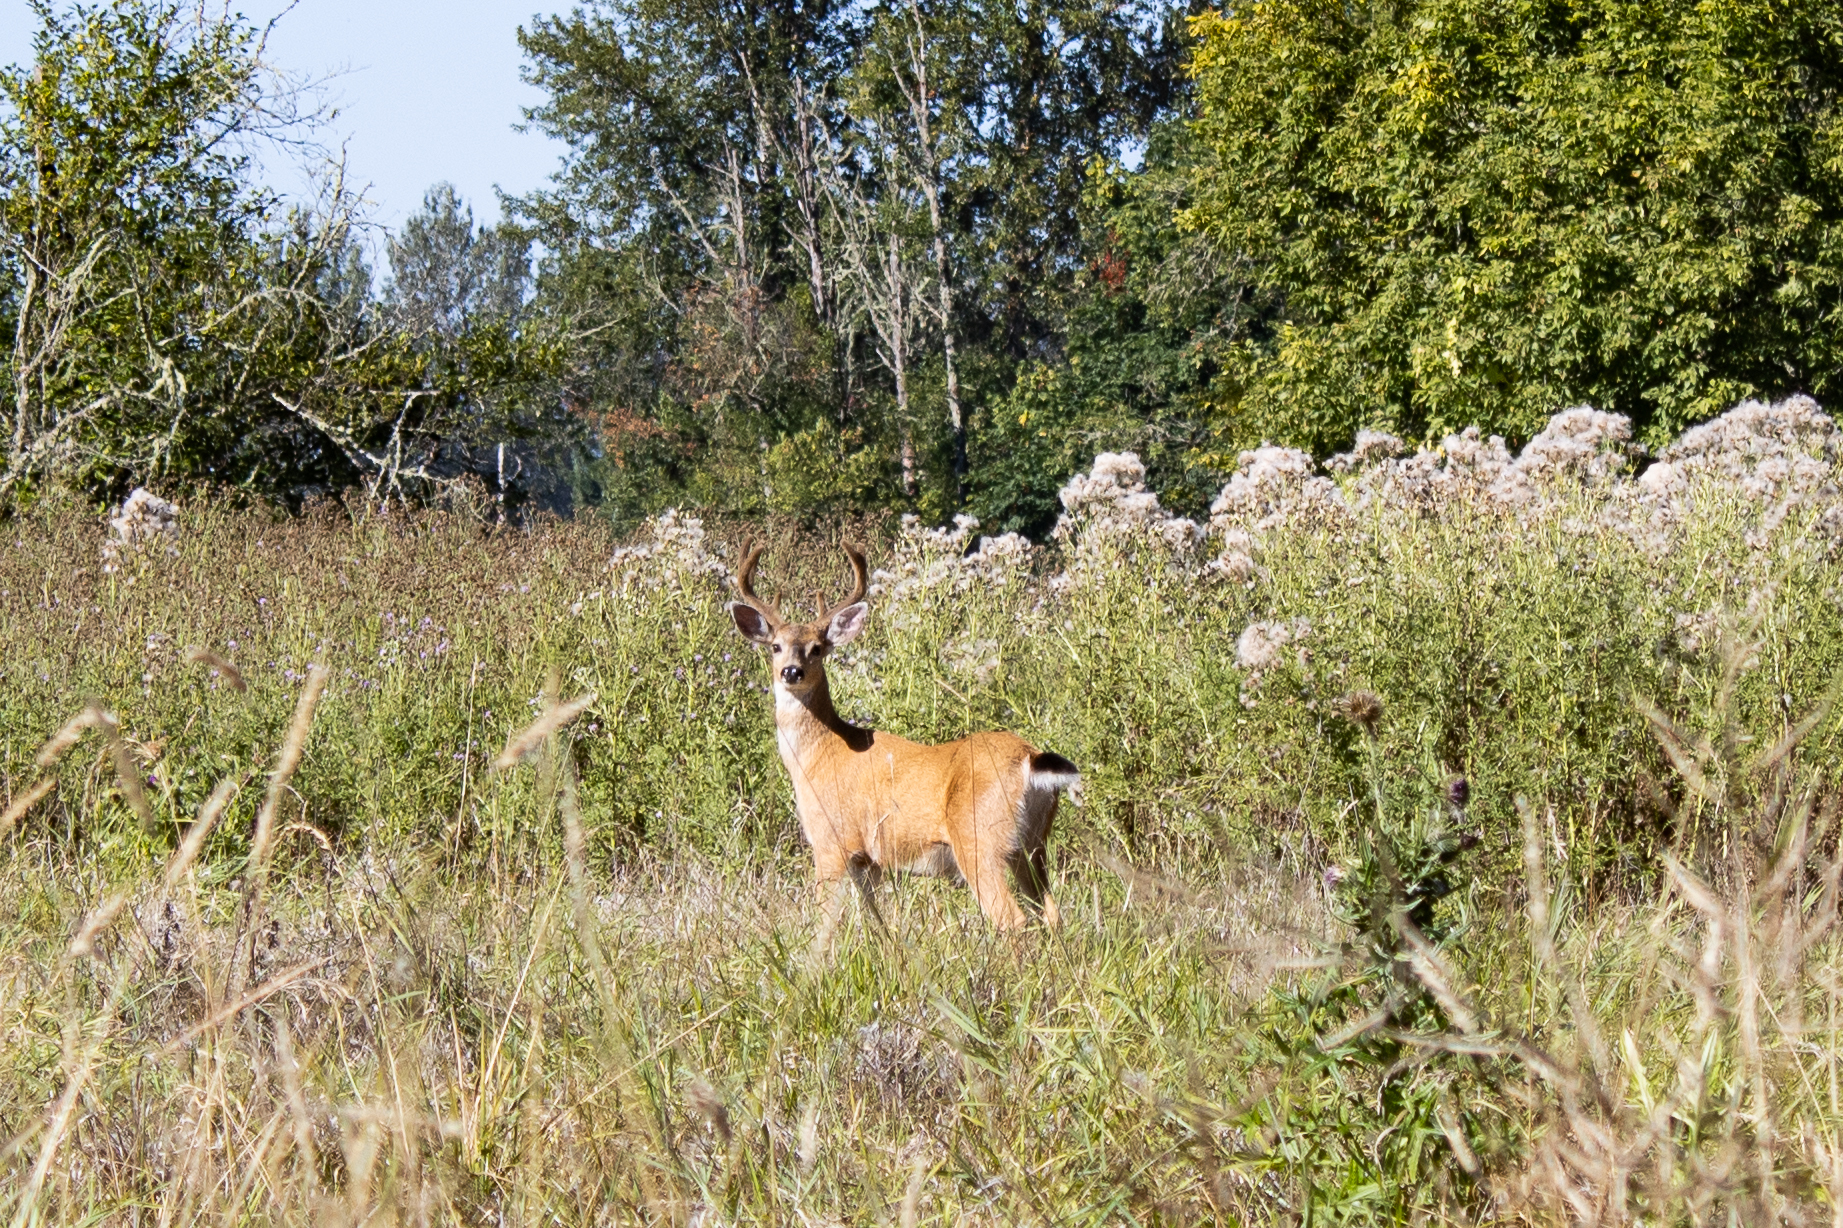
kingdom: Animalia
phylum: Chordata
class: Mammalia
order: Artiodactyla
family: Cervidae
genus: Odocoileus
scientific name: Odocoileus hemionus
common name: Mule deer
